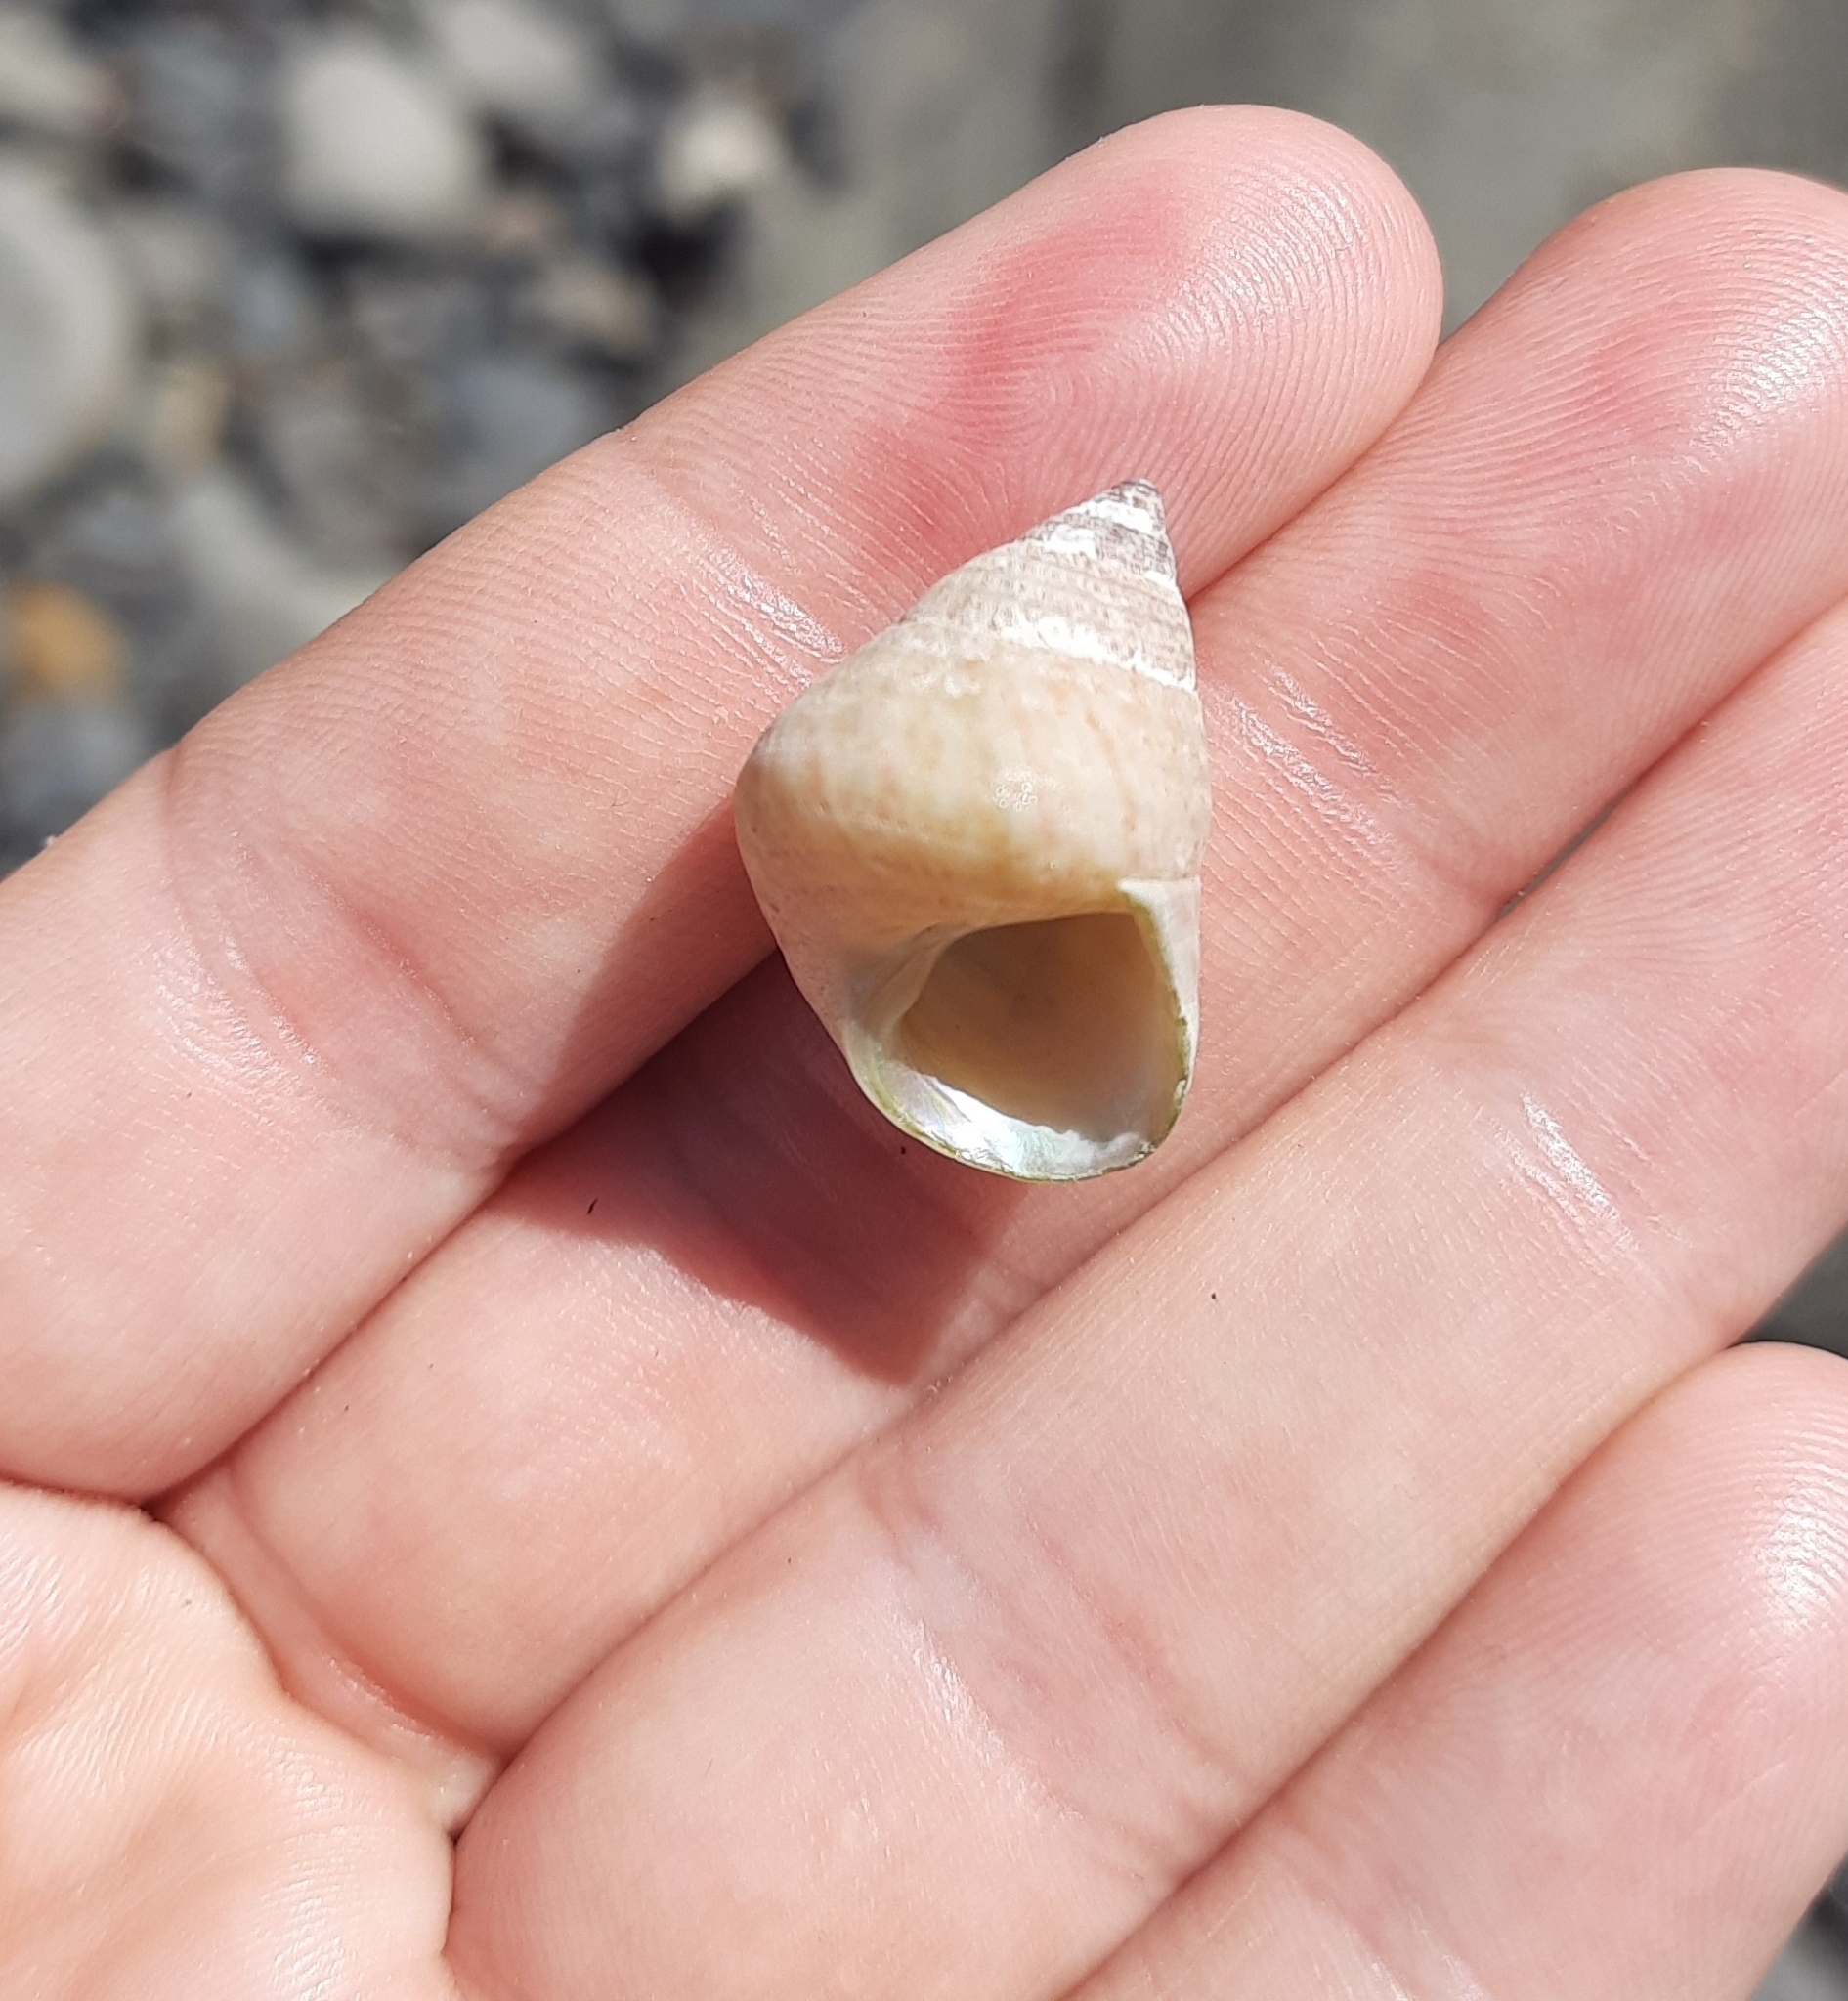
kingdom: Animalia
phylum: Mollusca
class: Gastropoda
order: Trochida
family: Trochidae
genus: Micrelenchus
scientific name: Micrelenchus purpureus
